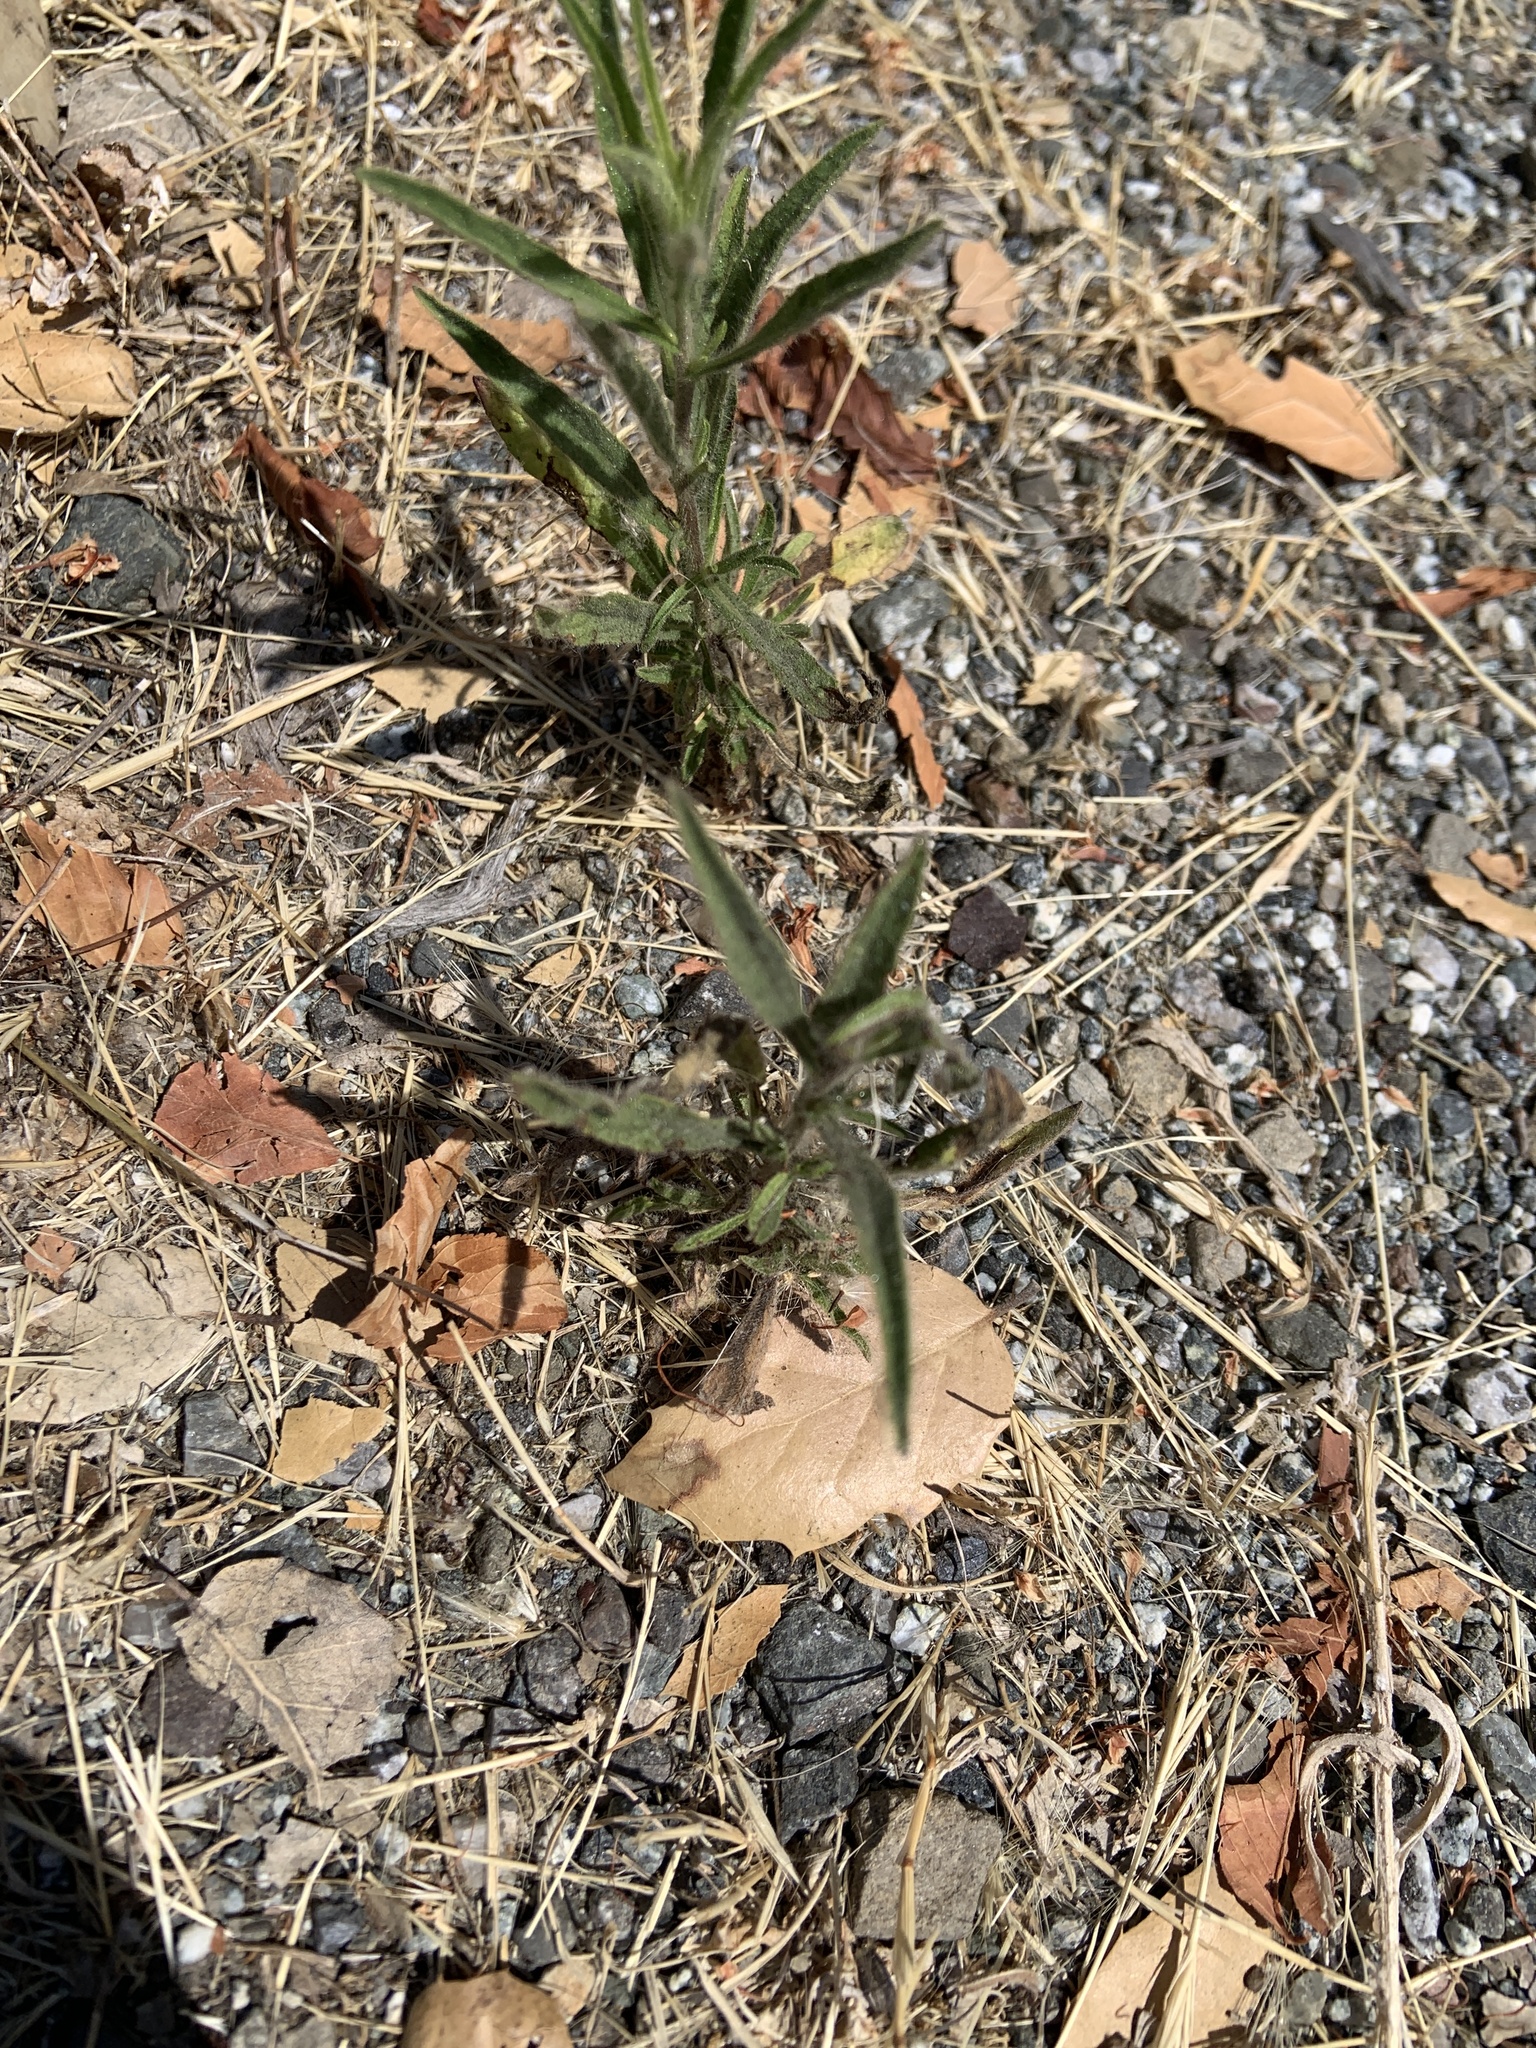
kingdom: Plantae
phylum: Tracheophyta
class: Magnoliopsida
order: Asterales
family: Asteraceae
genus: Dittrichia
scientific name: Dittrichia graveolens
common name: Stinking fleabane
